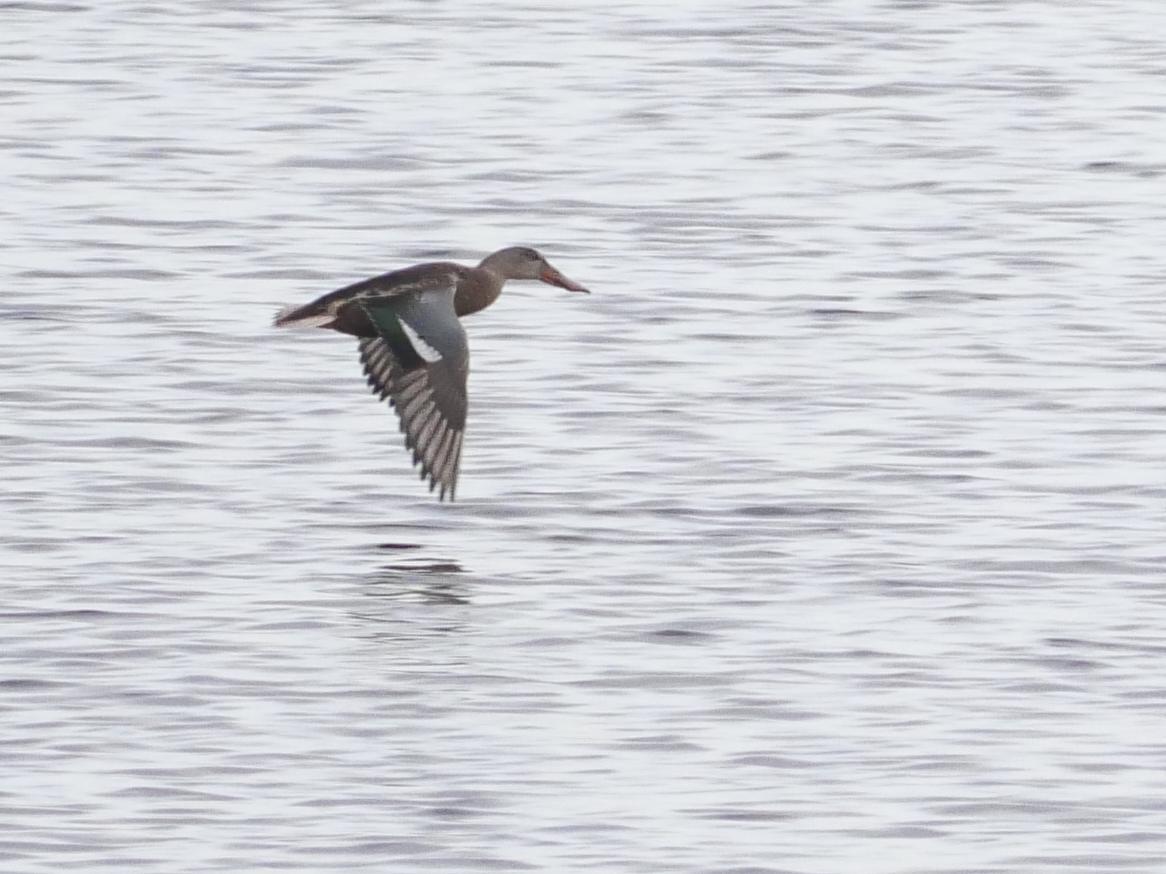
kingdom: Animalia
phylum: Chordata
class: Aves
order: Anseriformes
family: Anatidae
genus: Spatula
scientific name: Spatula clypeata
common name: Northern shoveler
